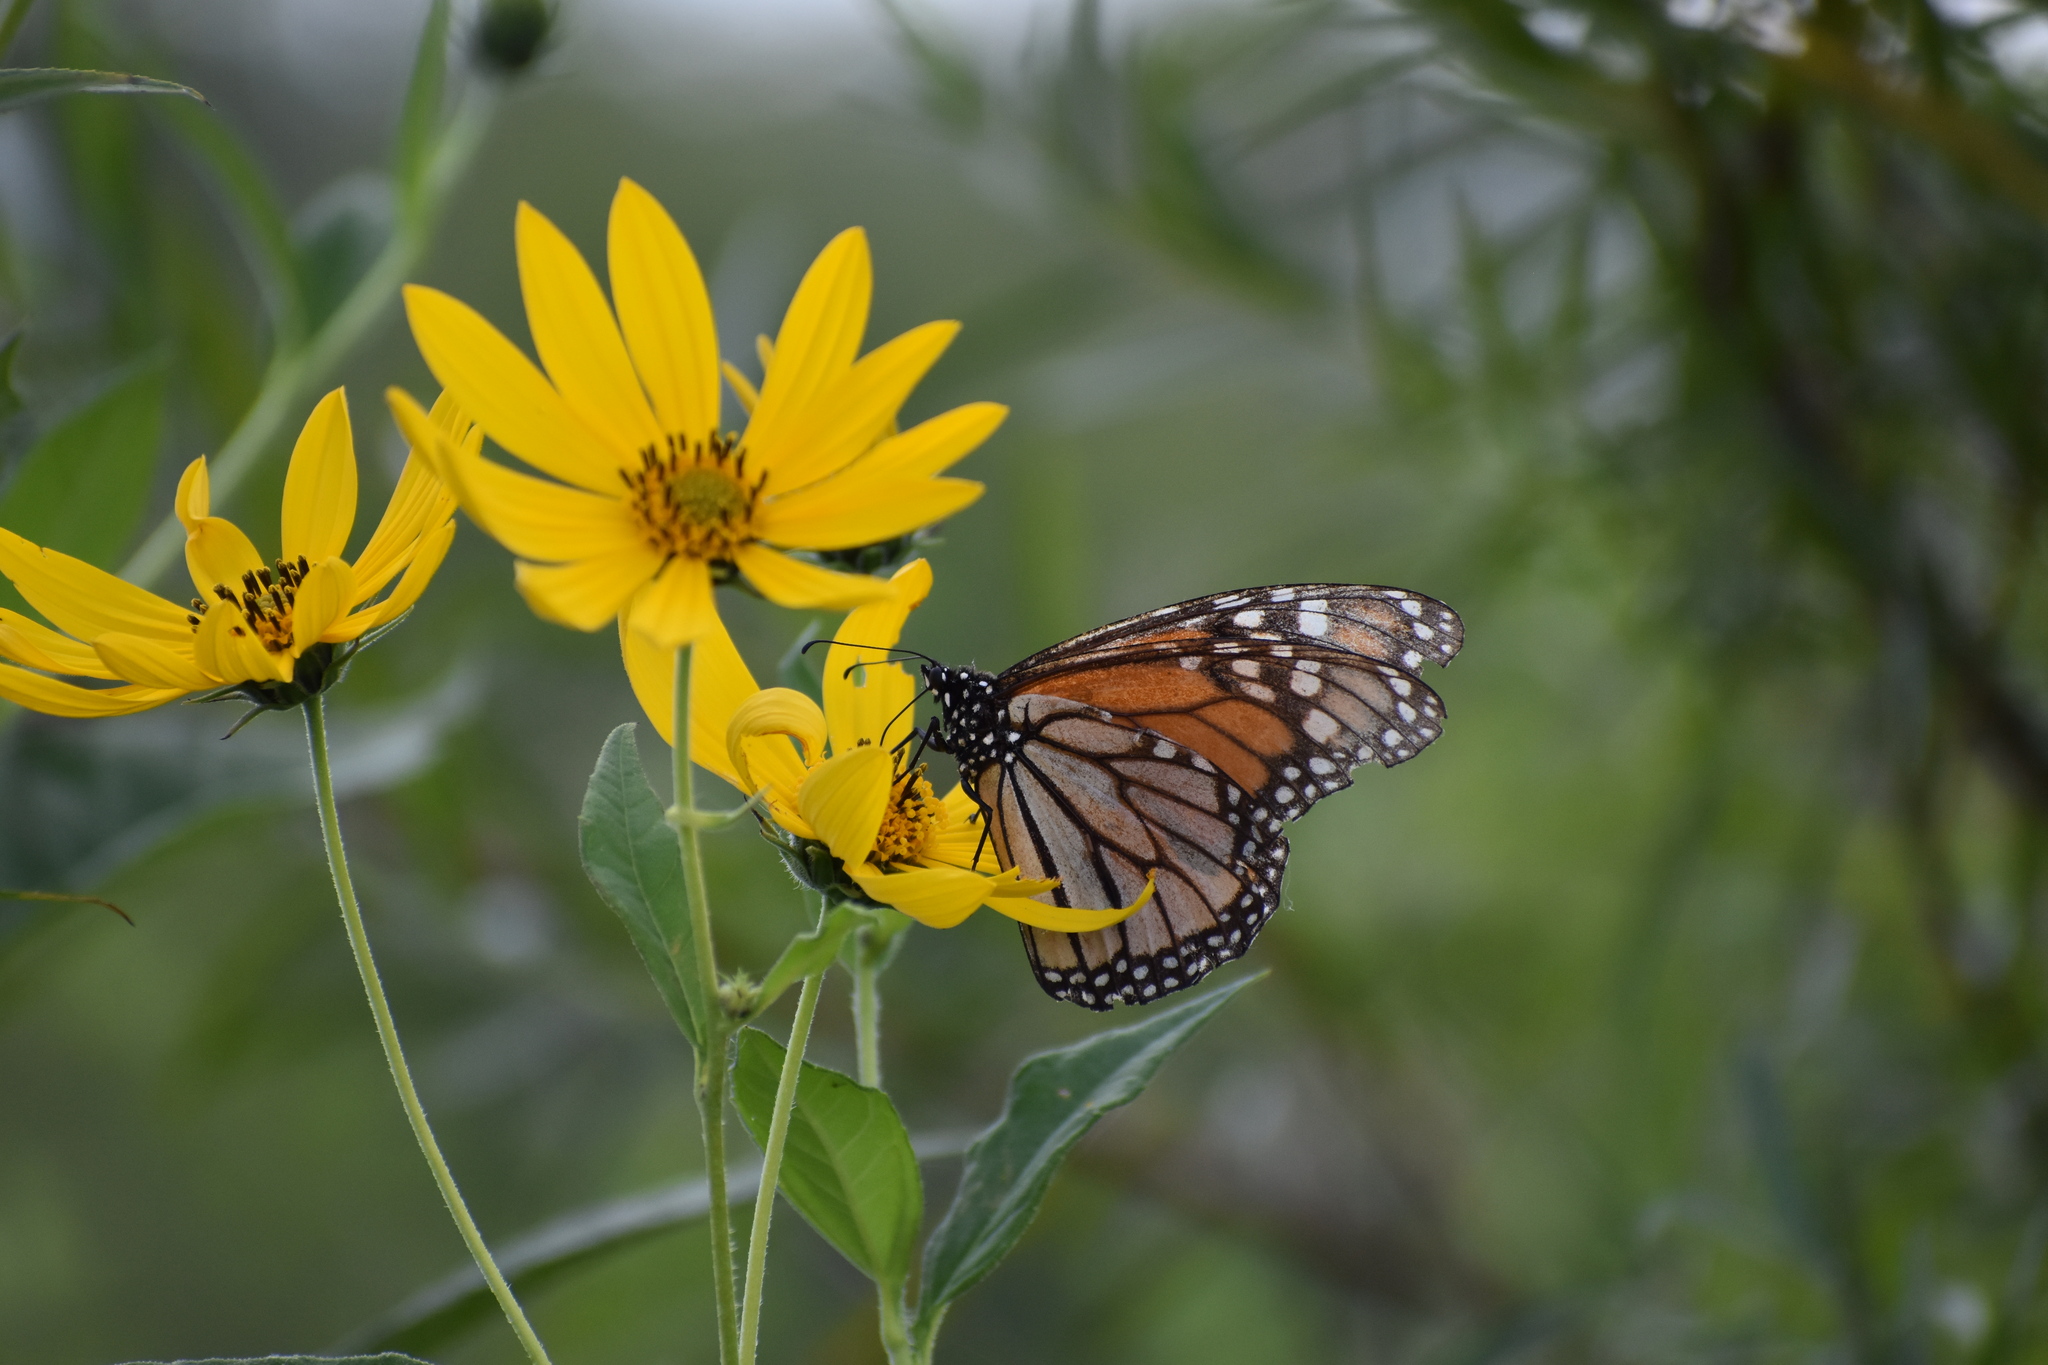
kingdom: Animalia
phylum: Arthropoda
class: Insecta
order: Lepidoptera
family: Nymphalidae
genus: Danaus
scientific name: Danaus plexippus
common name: Monarch
